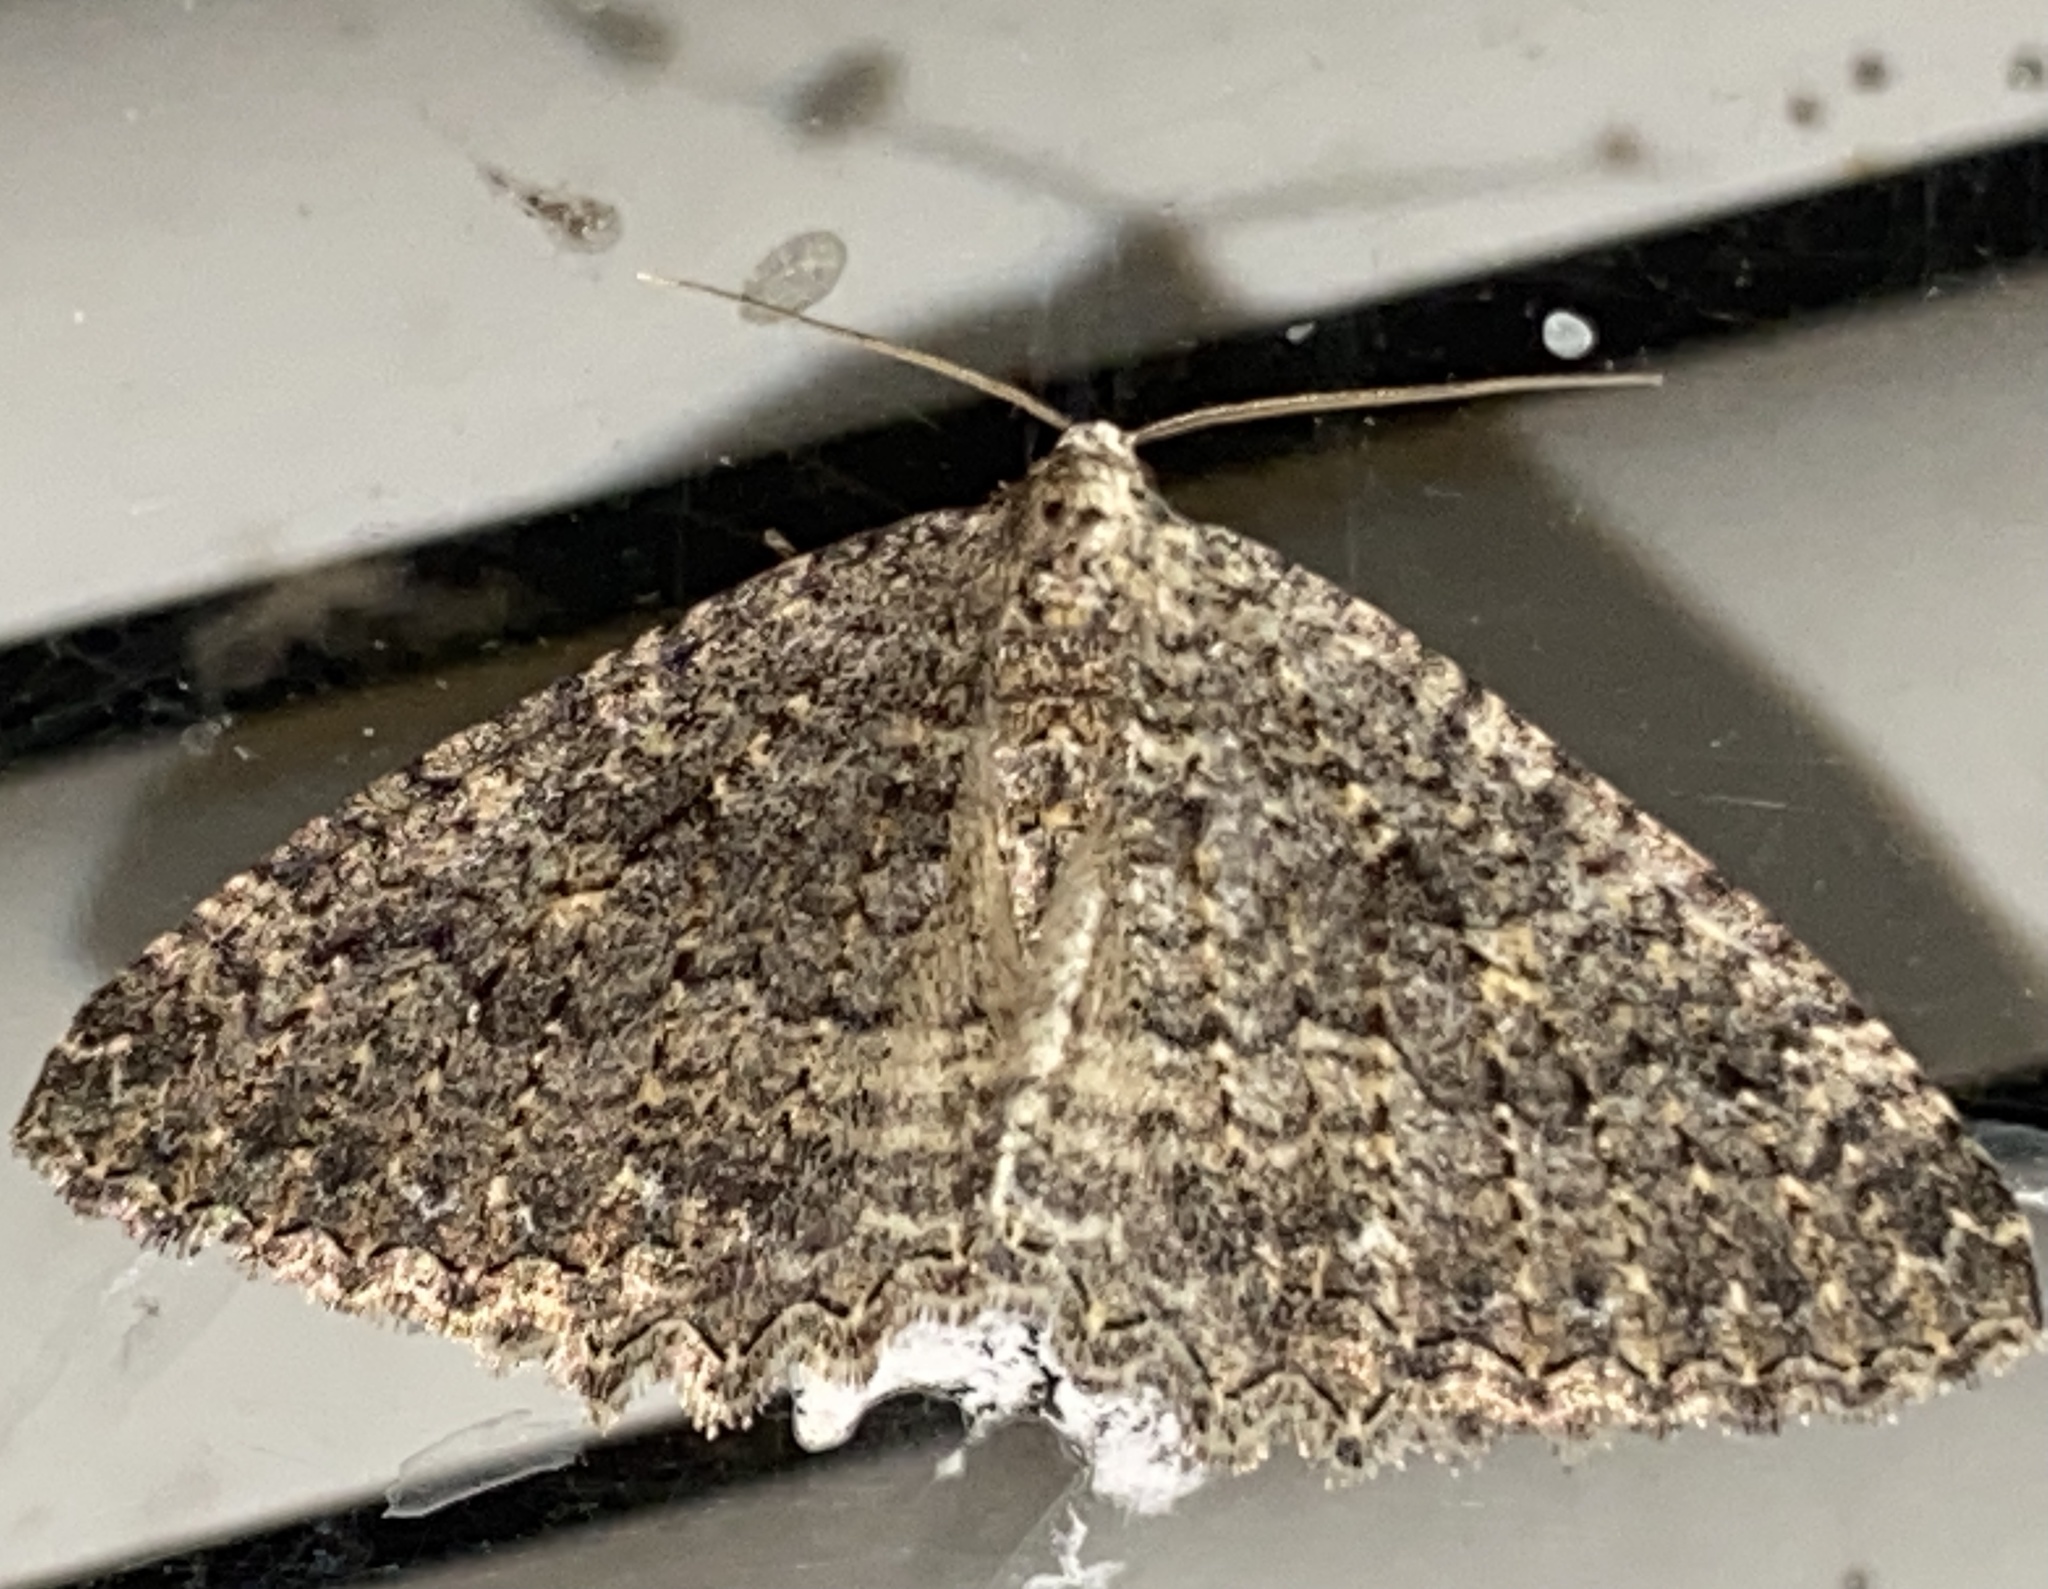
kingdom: Animalia
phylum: Arthropoda
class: Insecta
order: Lepidoptera
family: Geometridae
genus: Triphosa
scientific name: Triphosa californiata
